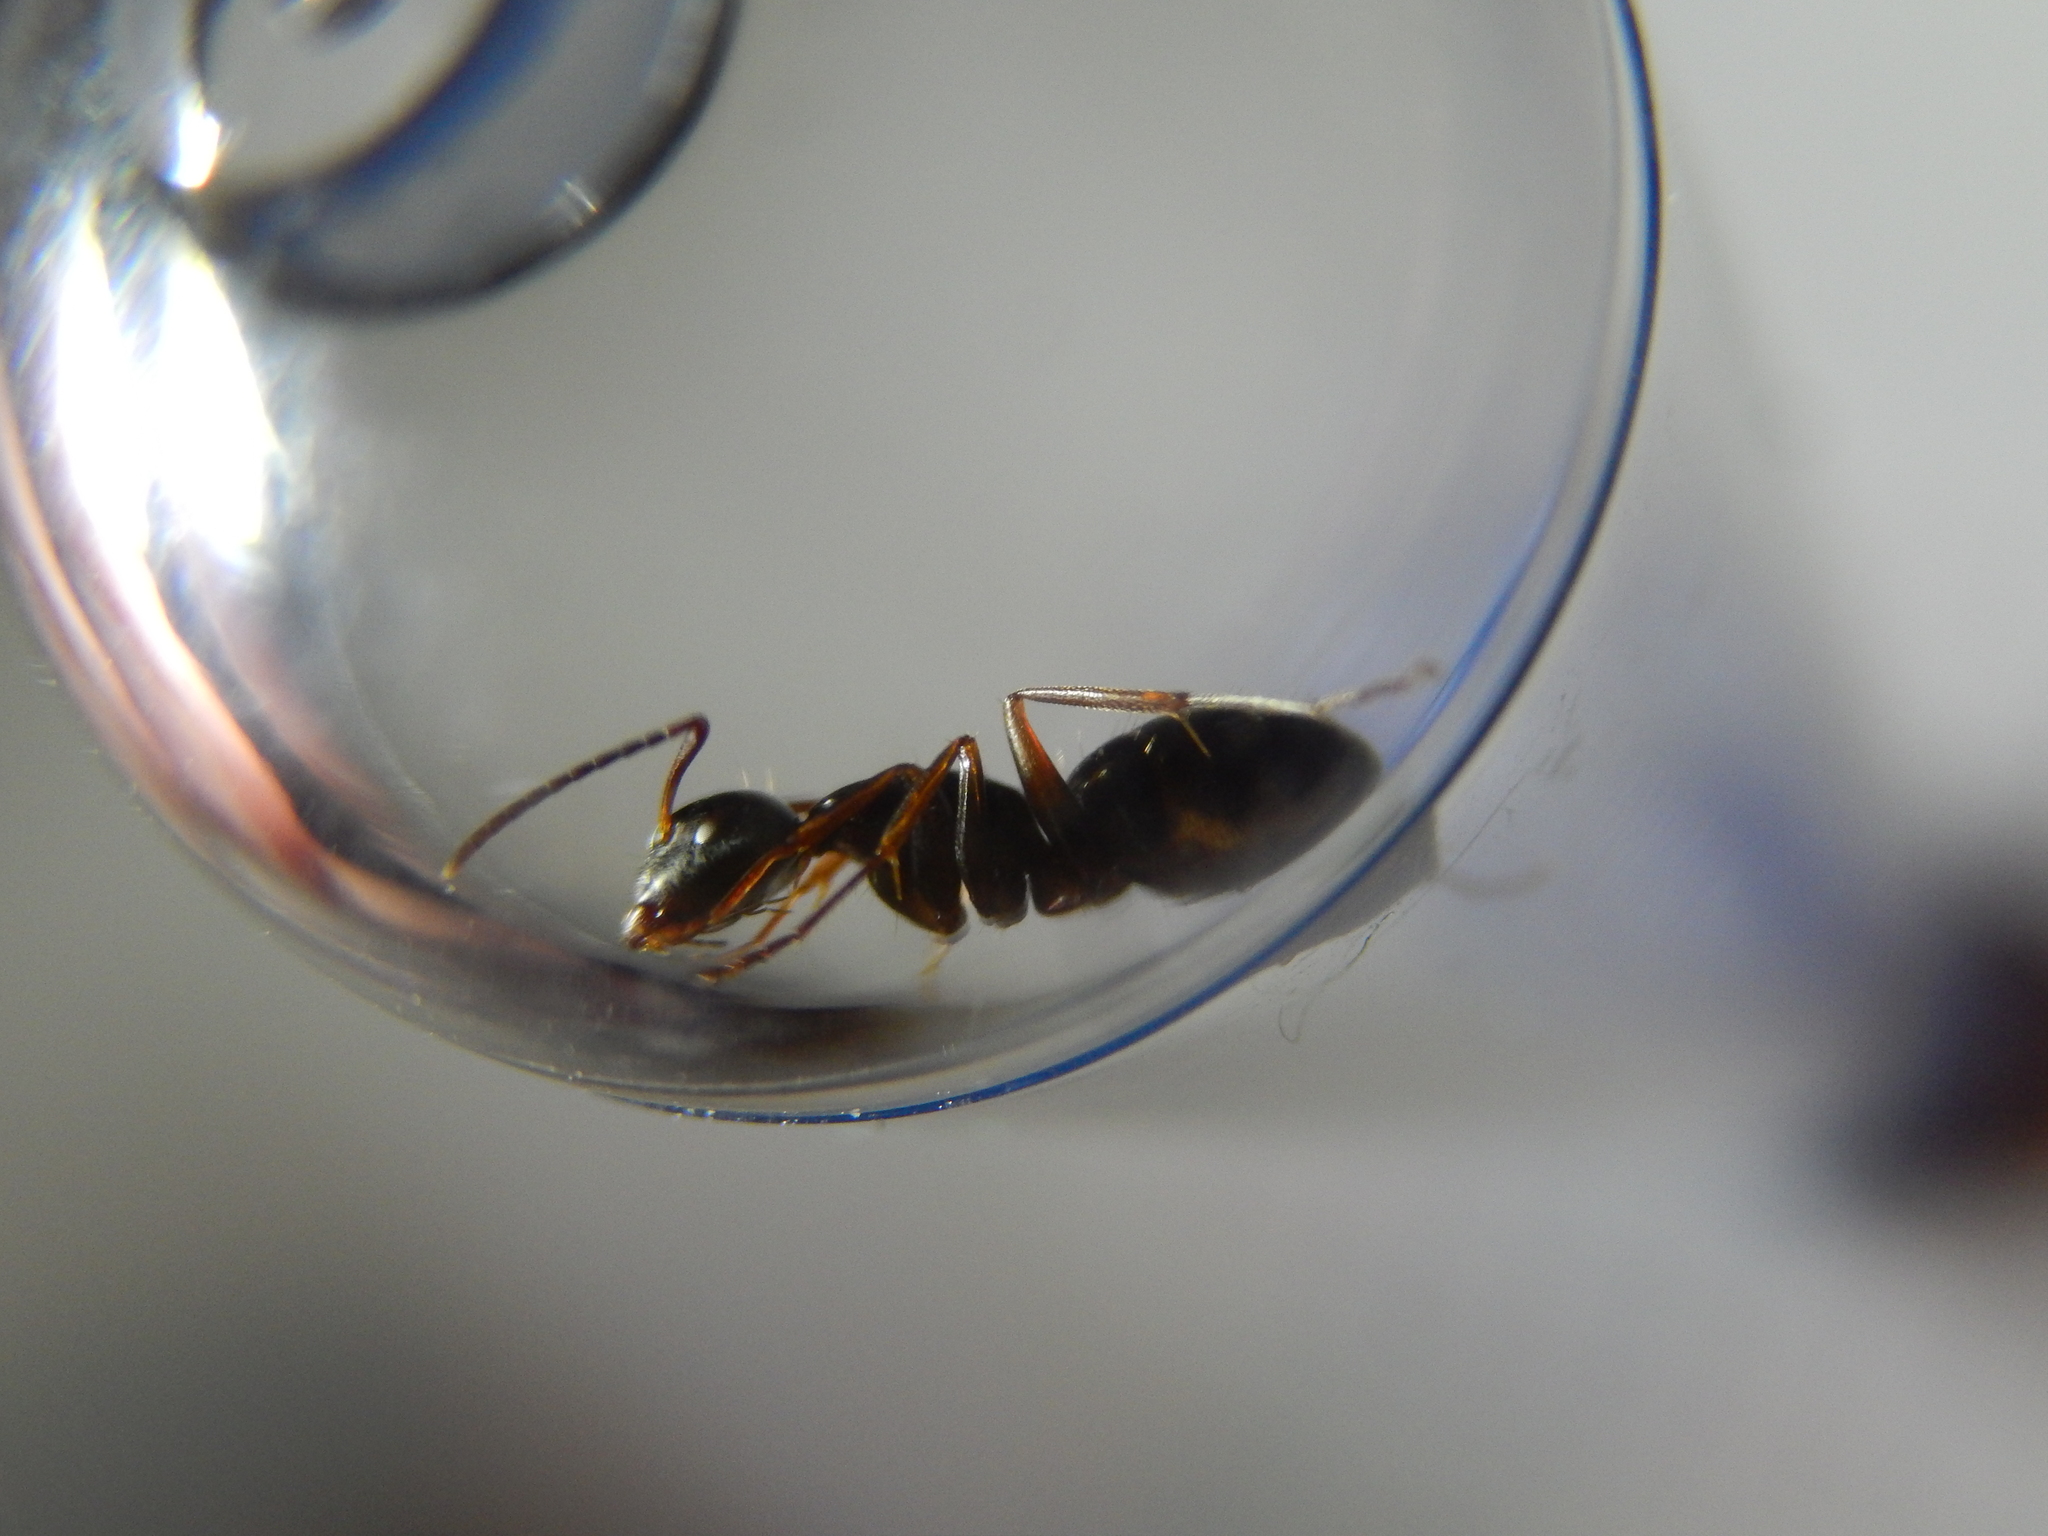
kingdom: Animalia
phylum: Arthropoda
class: Insecta
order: Hymenoptera
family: Formicidae
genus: Camponotus
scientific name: Camponotus fallax
